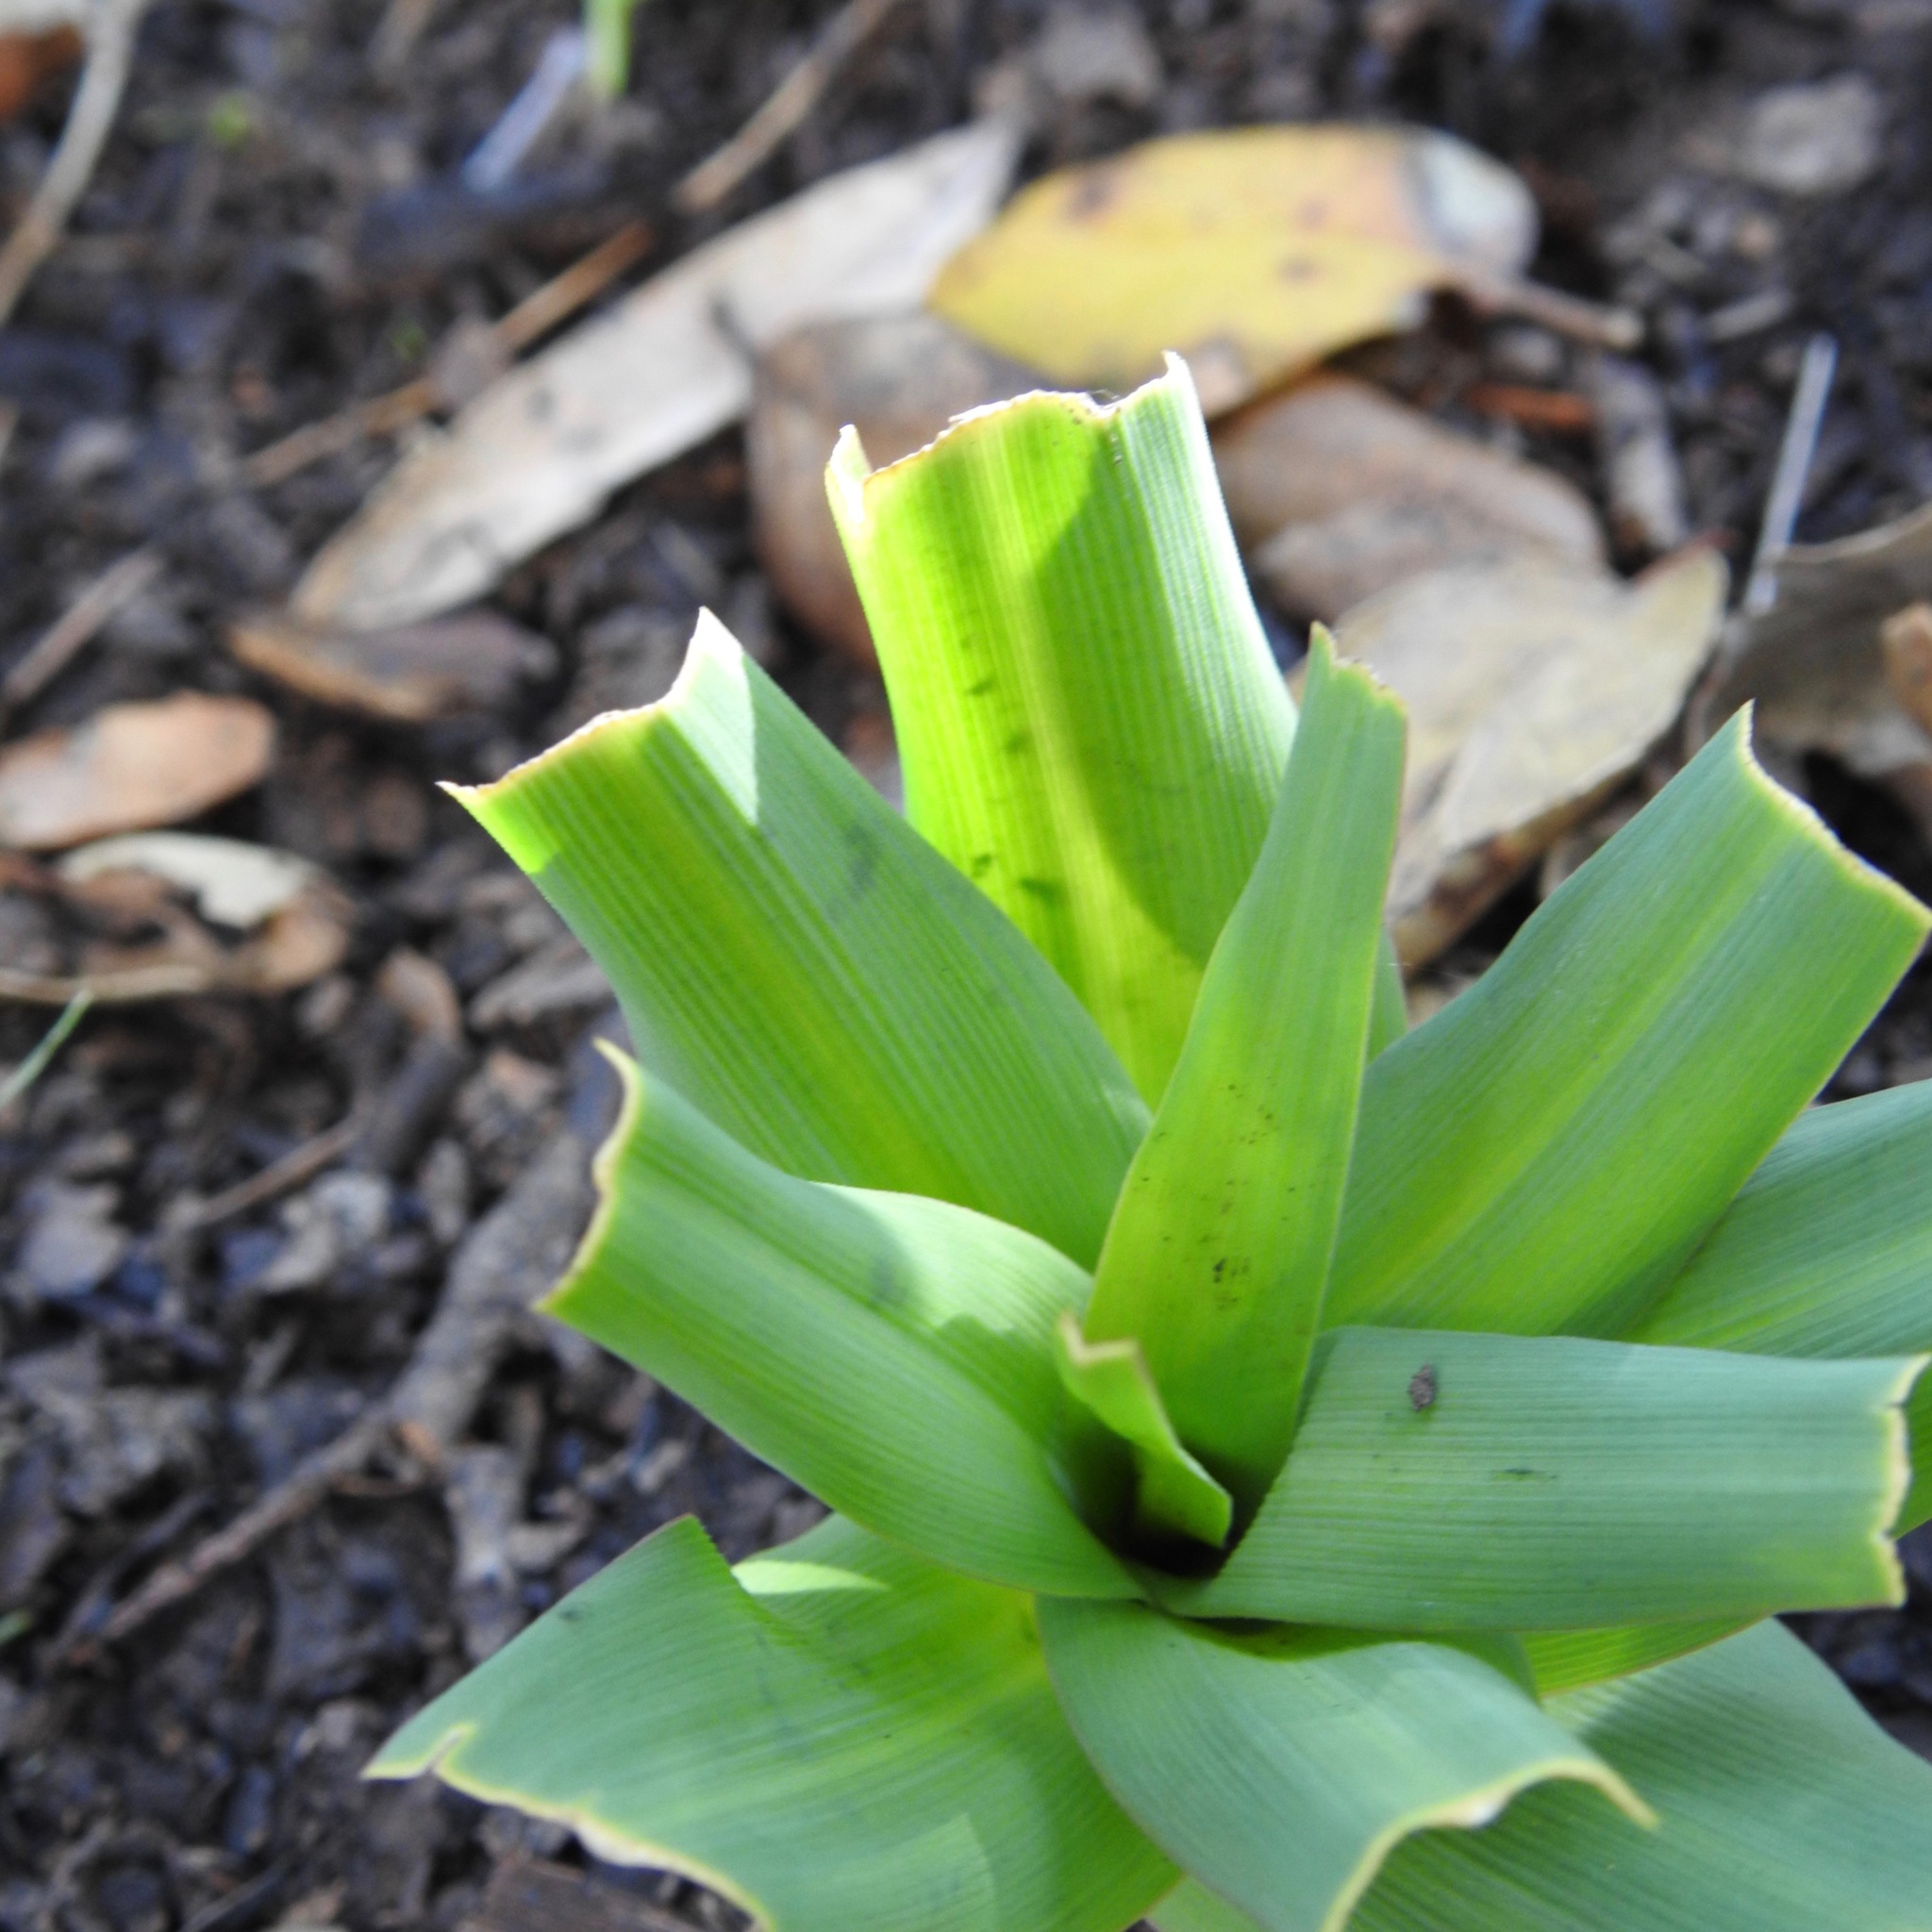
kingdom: Plantae
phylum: Tracheophyta
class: Liliopsida
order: Asparagales
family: Asparagaceae
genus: Chlorogalum
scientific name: Chlorogalum pomeridianum
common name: Amole
